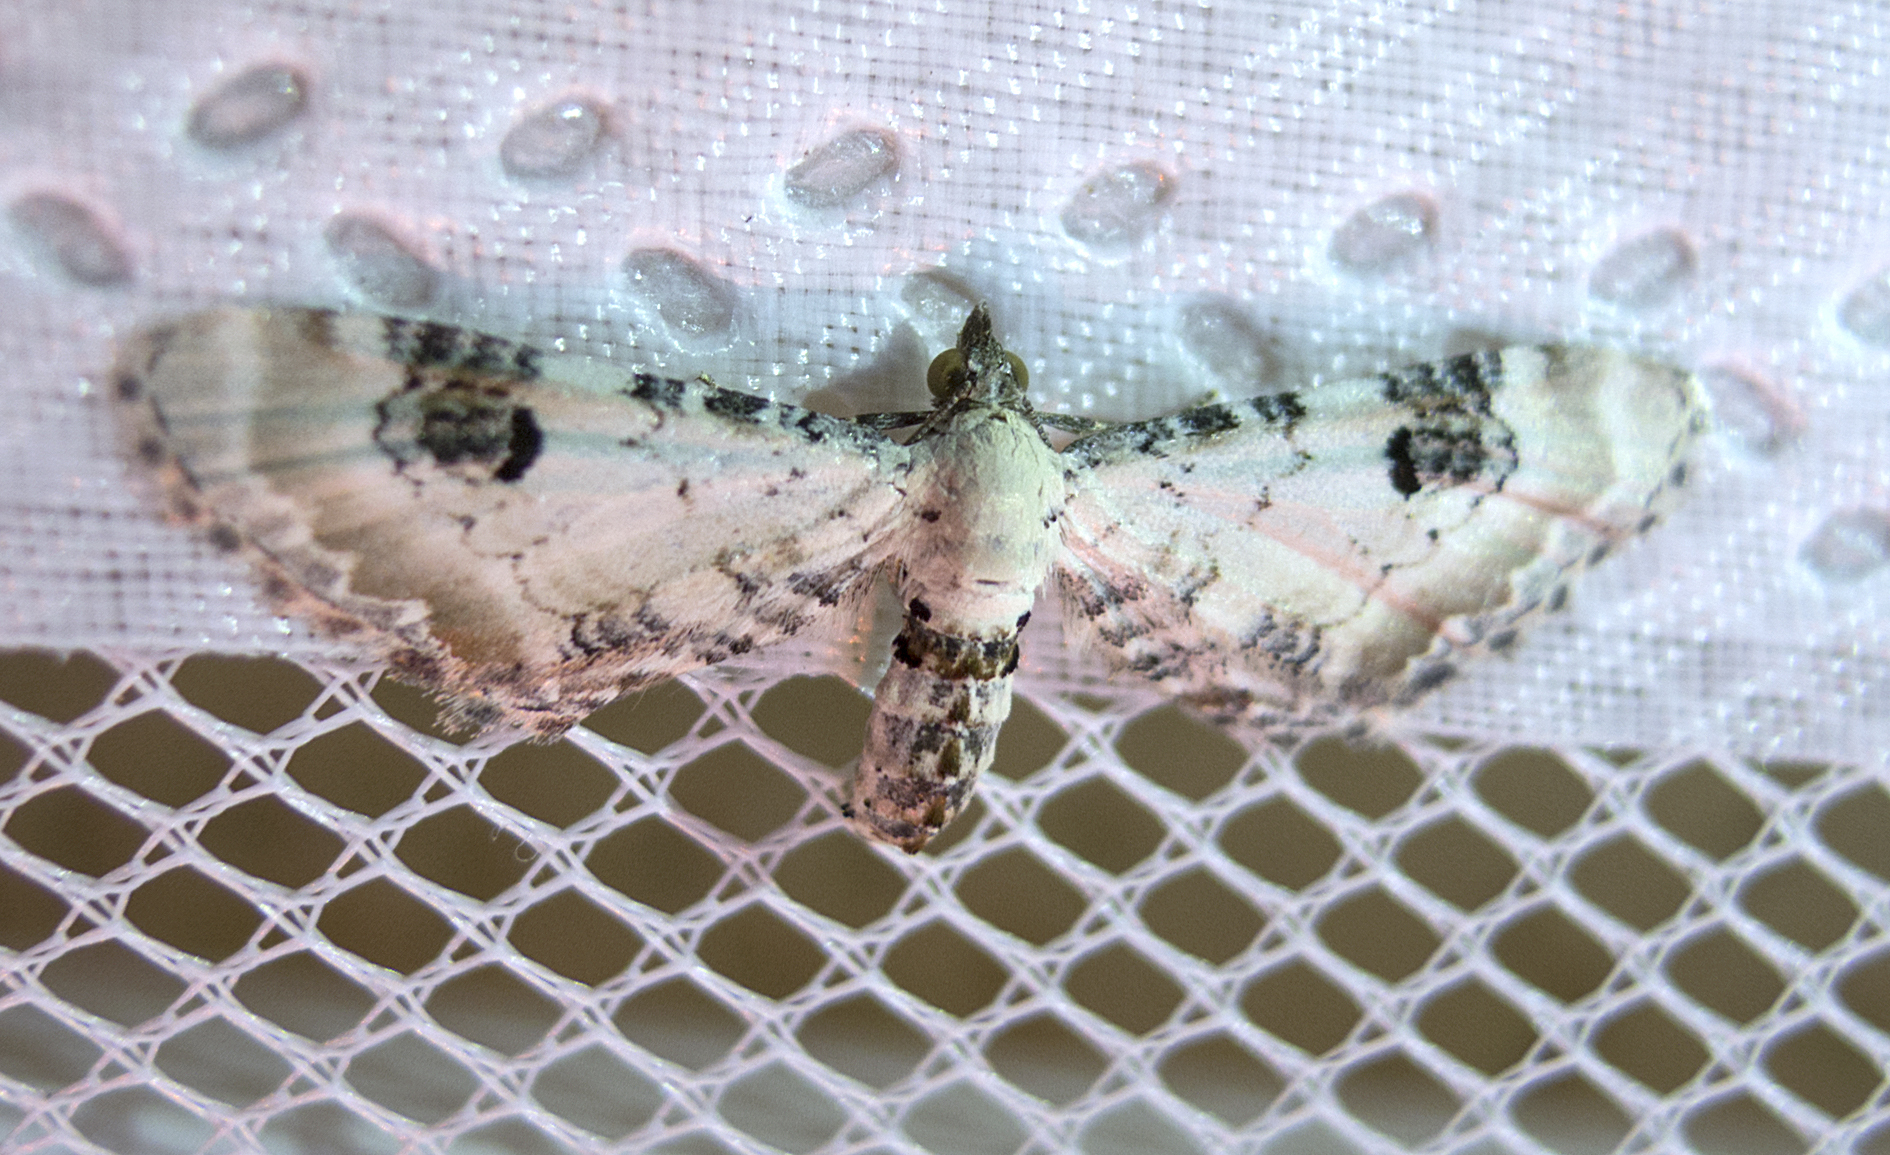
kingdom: Animalia
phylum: Arthropoda
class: Insecta
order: Lepidoptera
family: Geometridae
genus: Eupithecia
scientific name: Eupithecia centaureata
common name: Lime-speck pug
